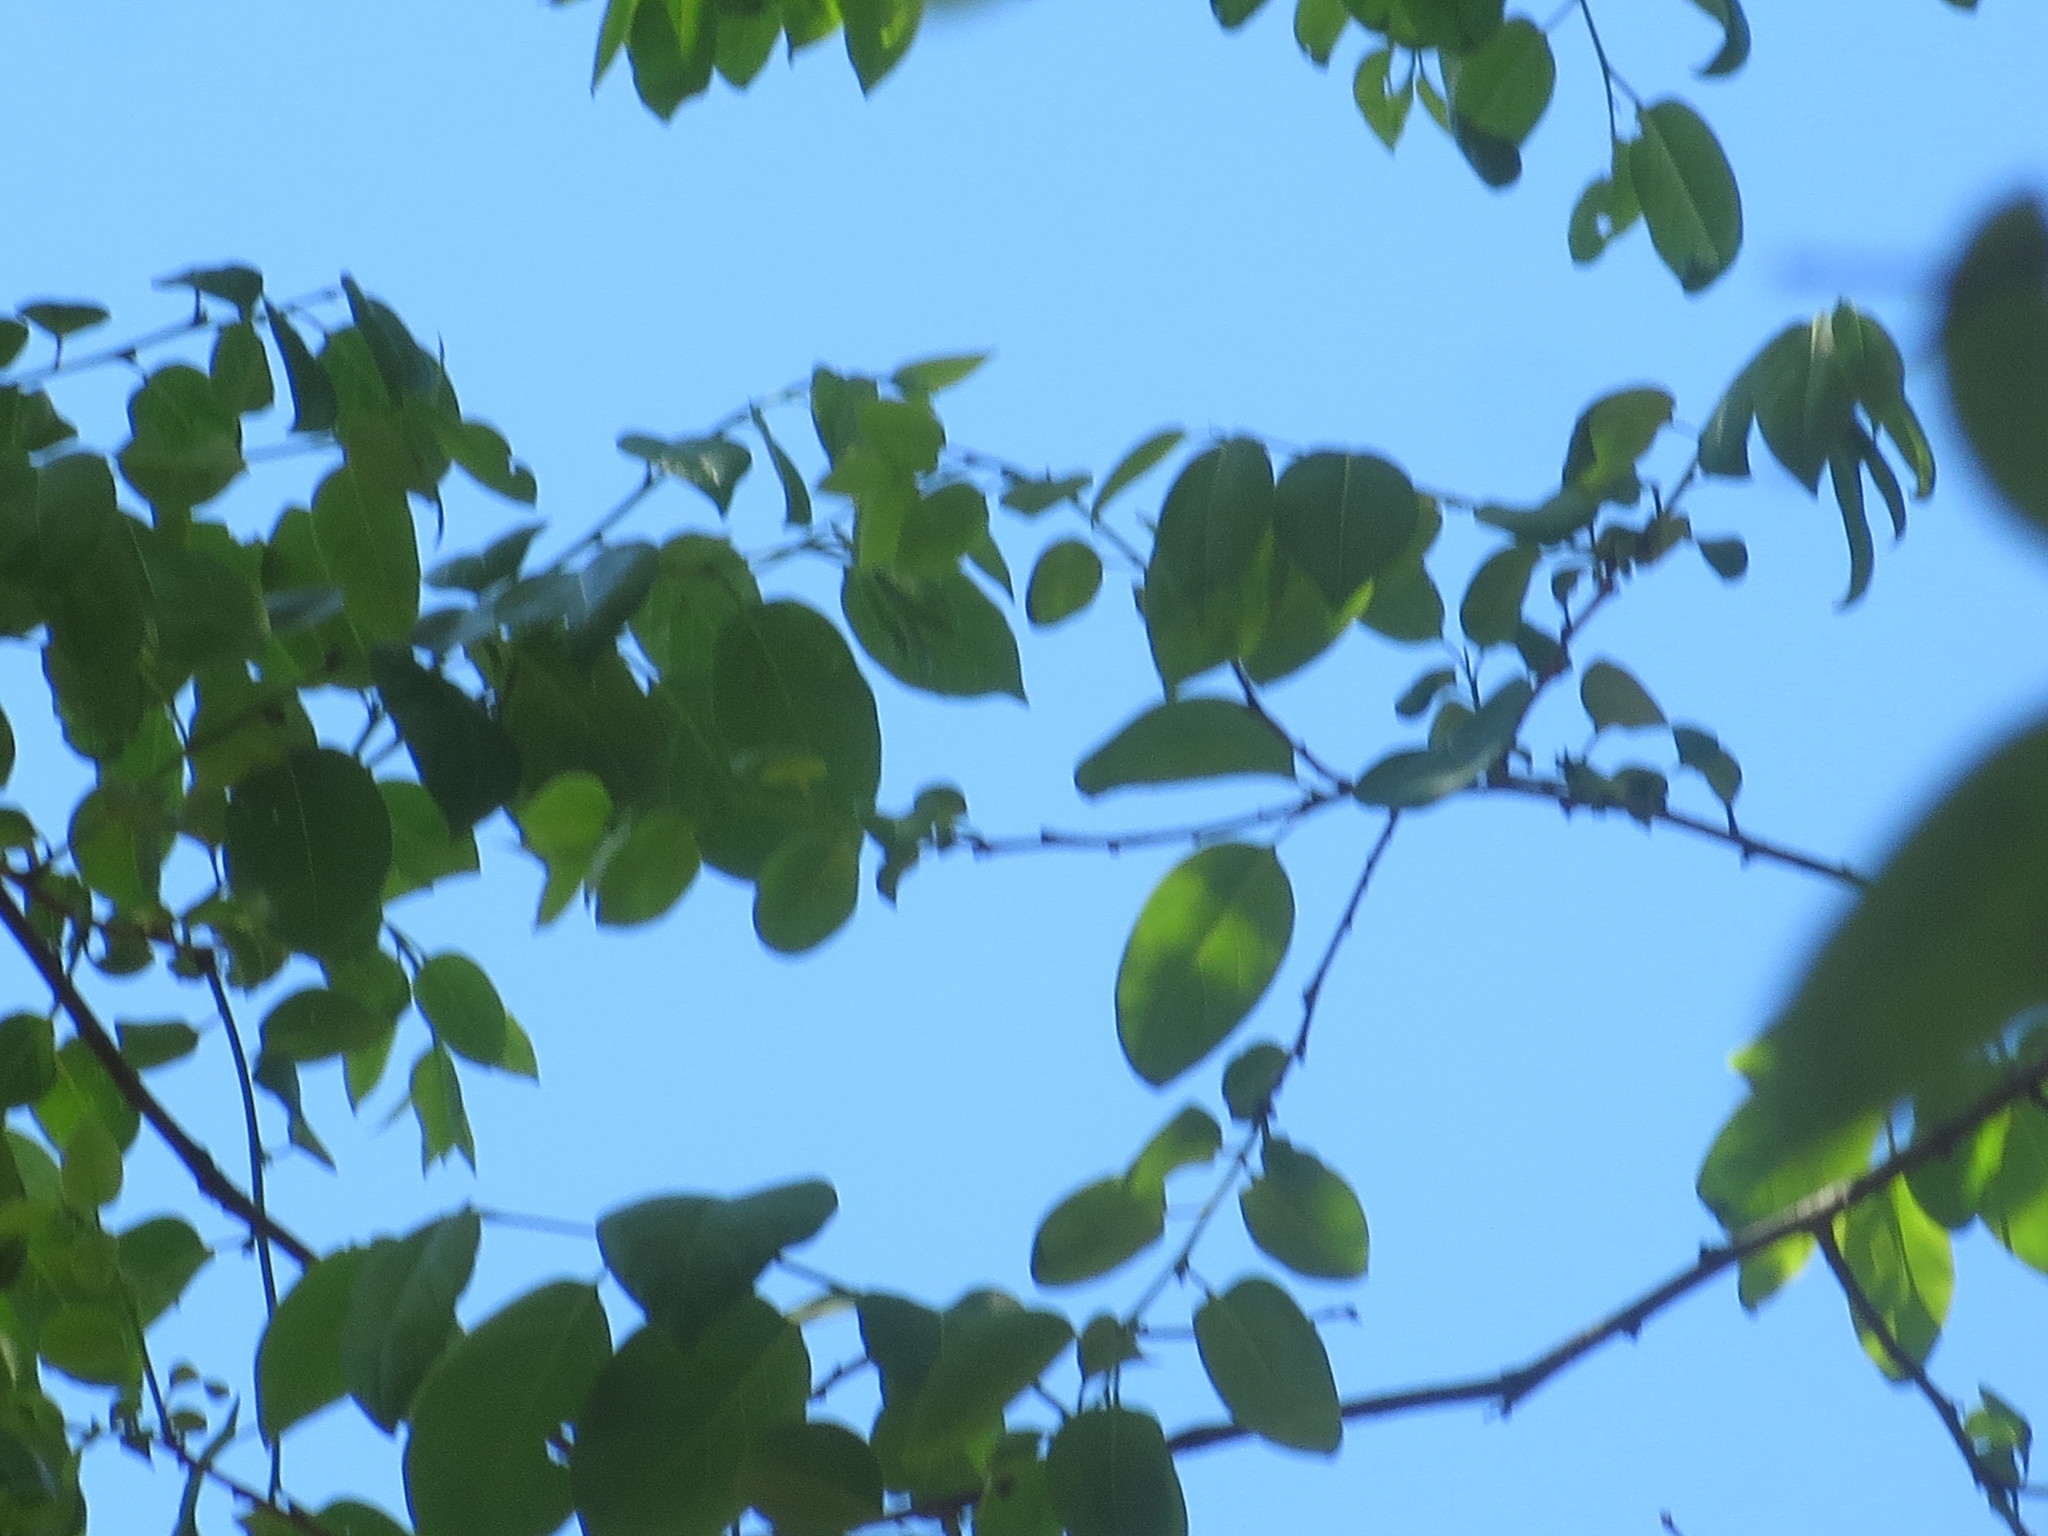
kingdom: Plantae
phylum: Tracheophyta
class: Magnoliopsida
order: Ericales
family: Ebenaceae
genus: Diospyros
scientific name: Diospyros virginiana
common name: Persimmon
